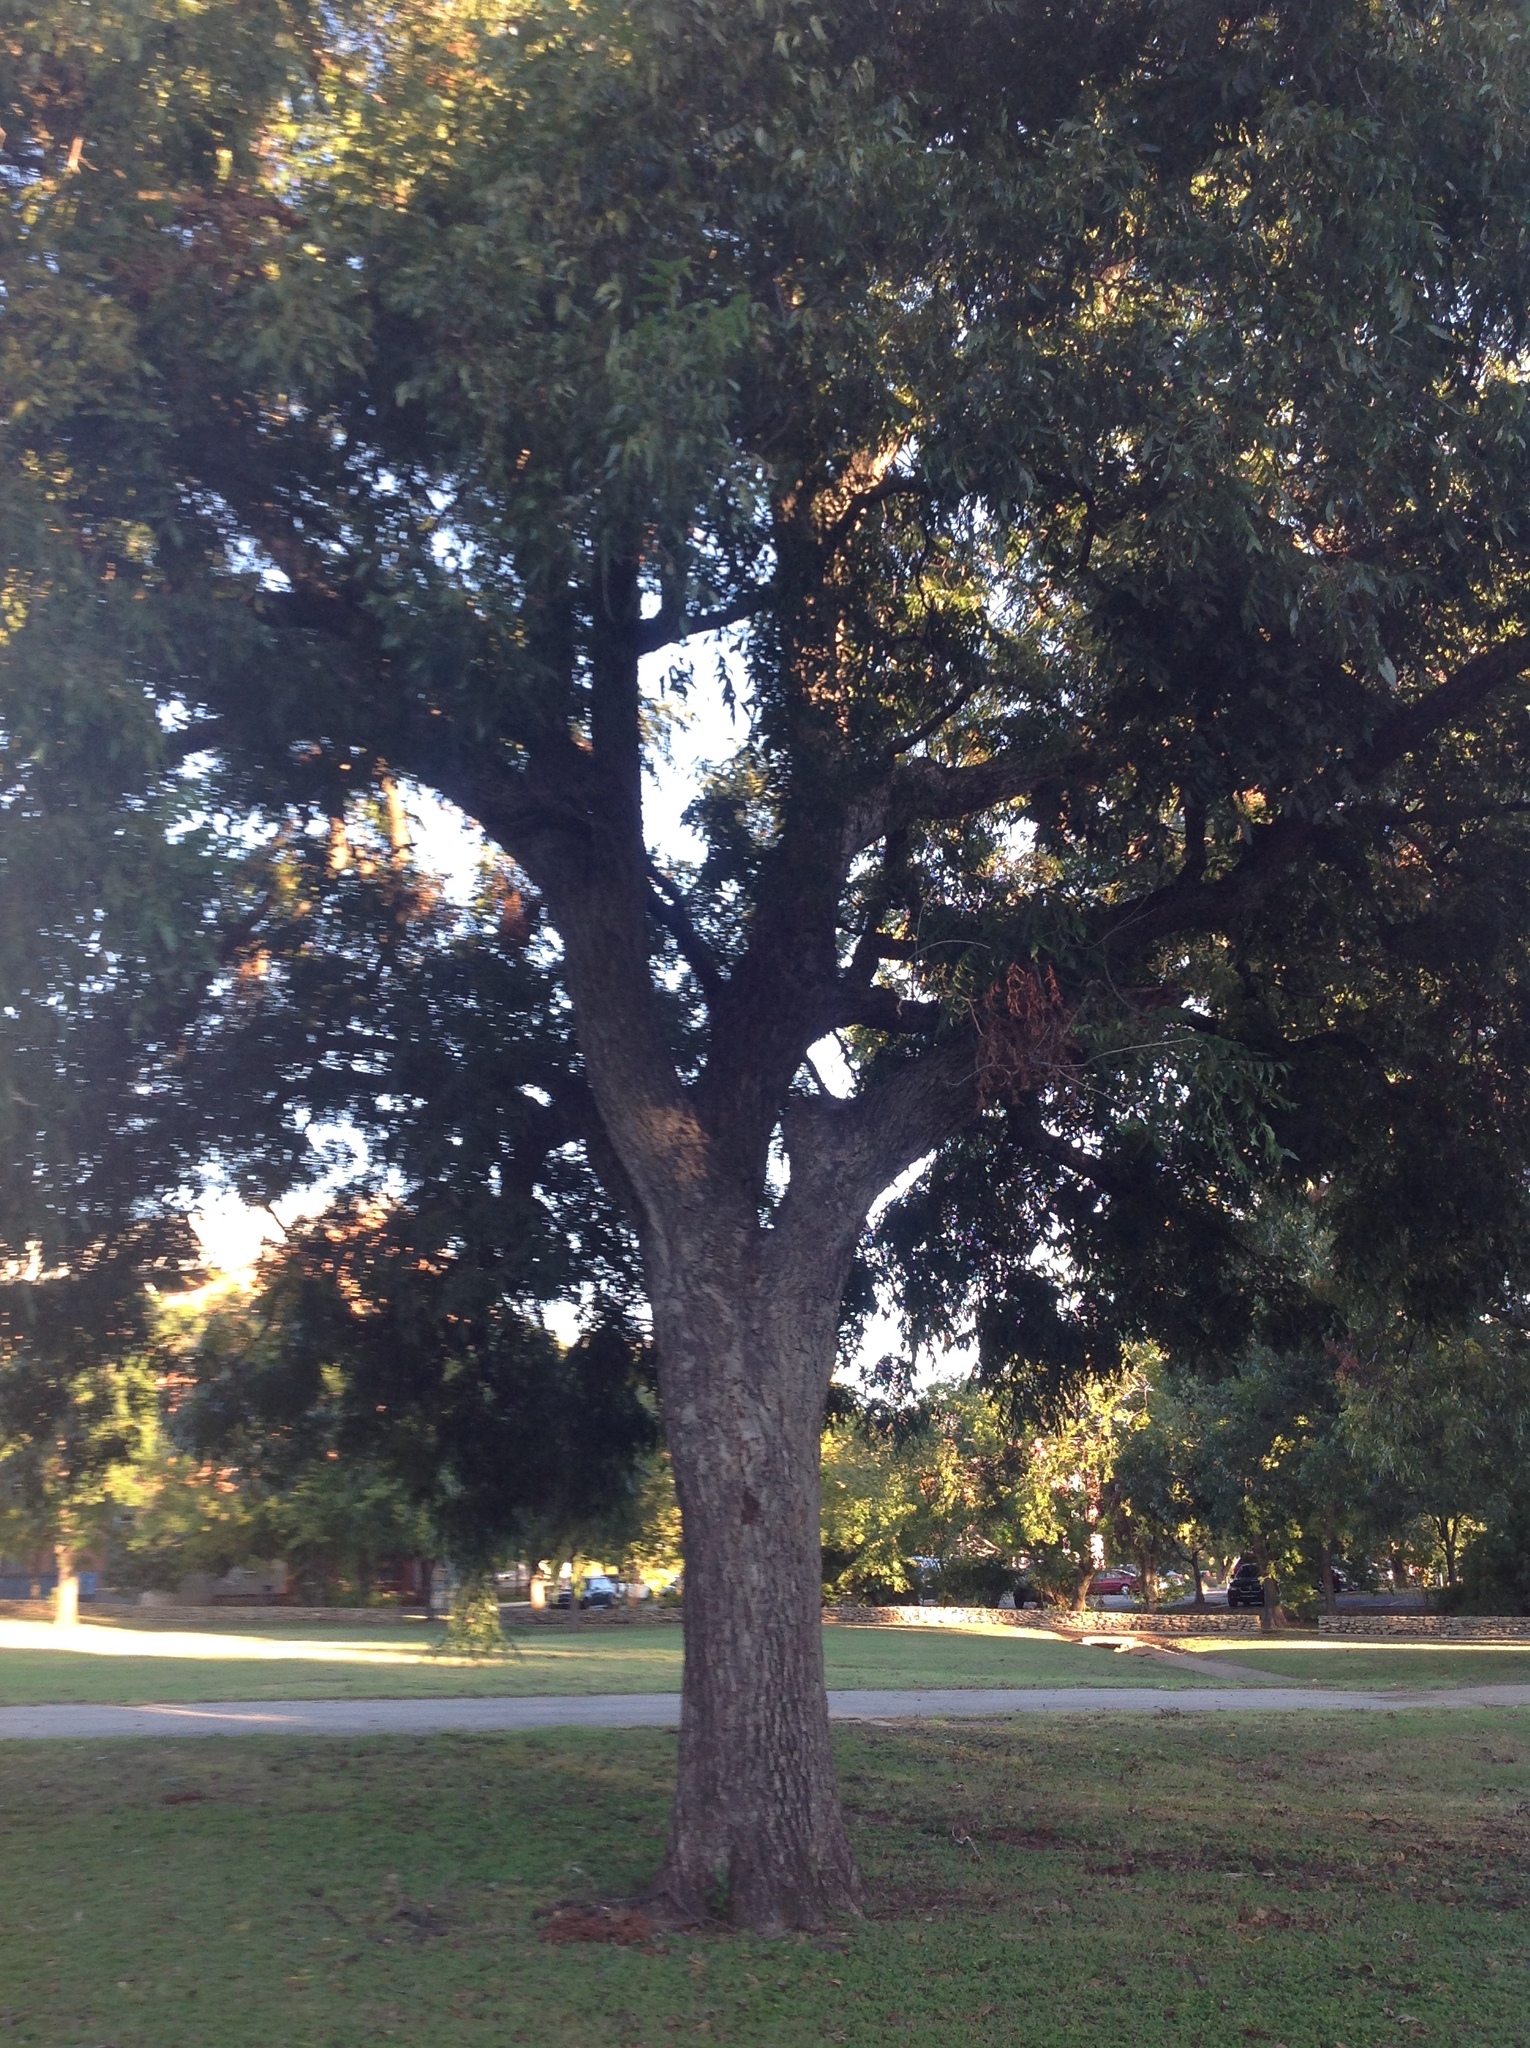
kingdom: Plantae
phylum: Tracheophyta
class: Magnoliopsida
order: Fagales
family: Juglandaceae
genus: Carya
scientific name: Carya illinoinensis
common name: Pecan
